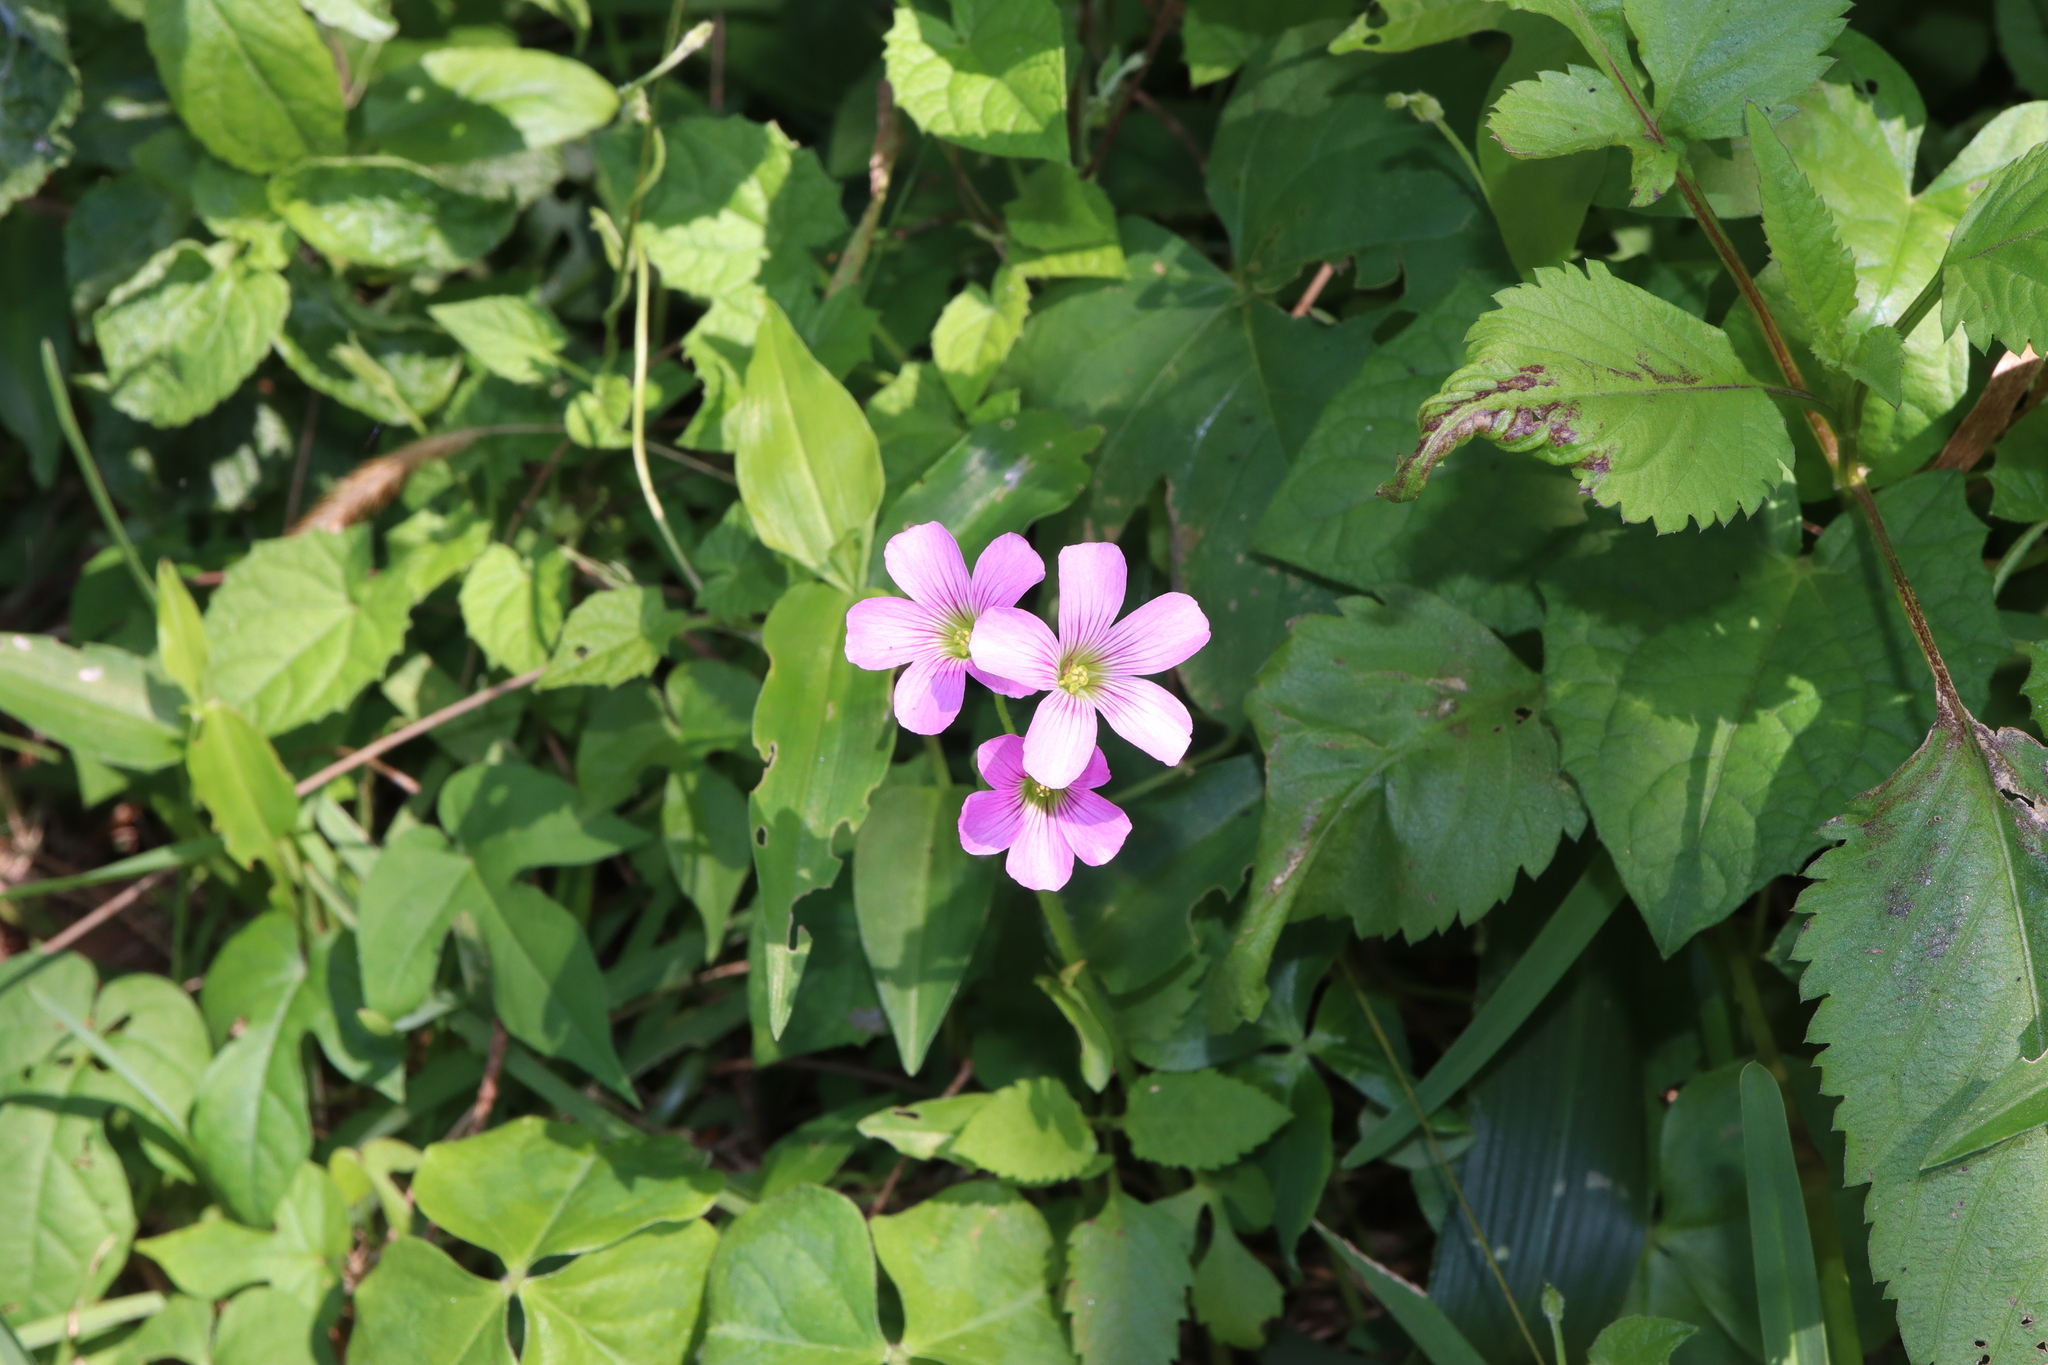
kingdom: Plantae
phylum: Tracheophyta
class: Magnoliopsida
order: Oxalidales
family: Oxalidaceae
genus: Oxalis
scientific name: Oxalis debilis
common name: Large-flowered pink-sorrel
